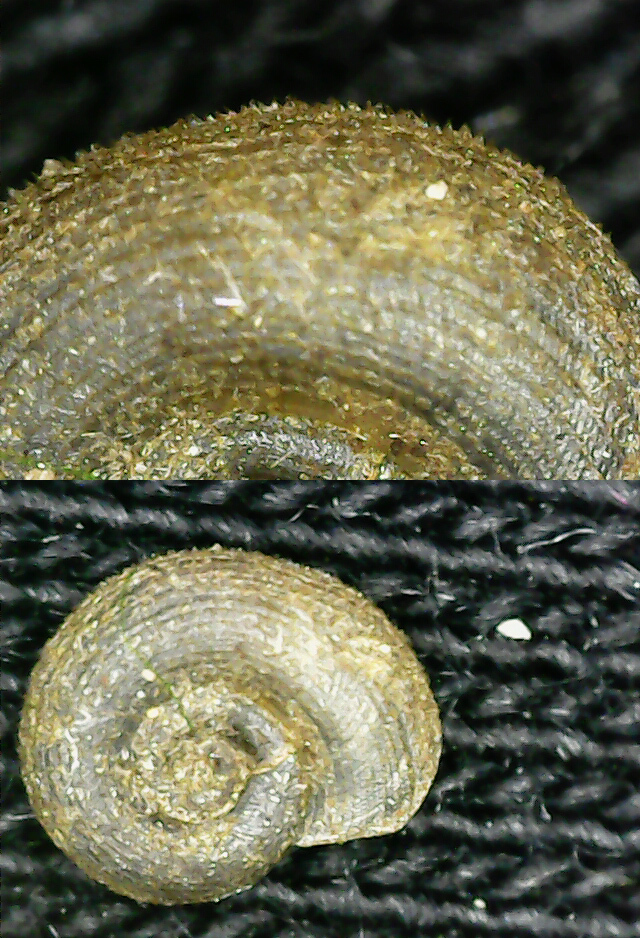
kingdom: Animalia
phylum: Mollusca
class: Gastropoda
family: Planorbidae
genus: Gyraulus
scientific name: Gyraulus albus
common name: White ramshorn
